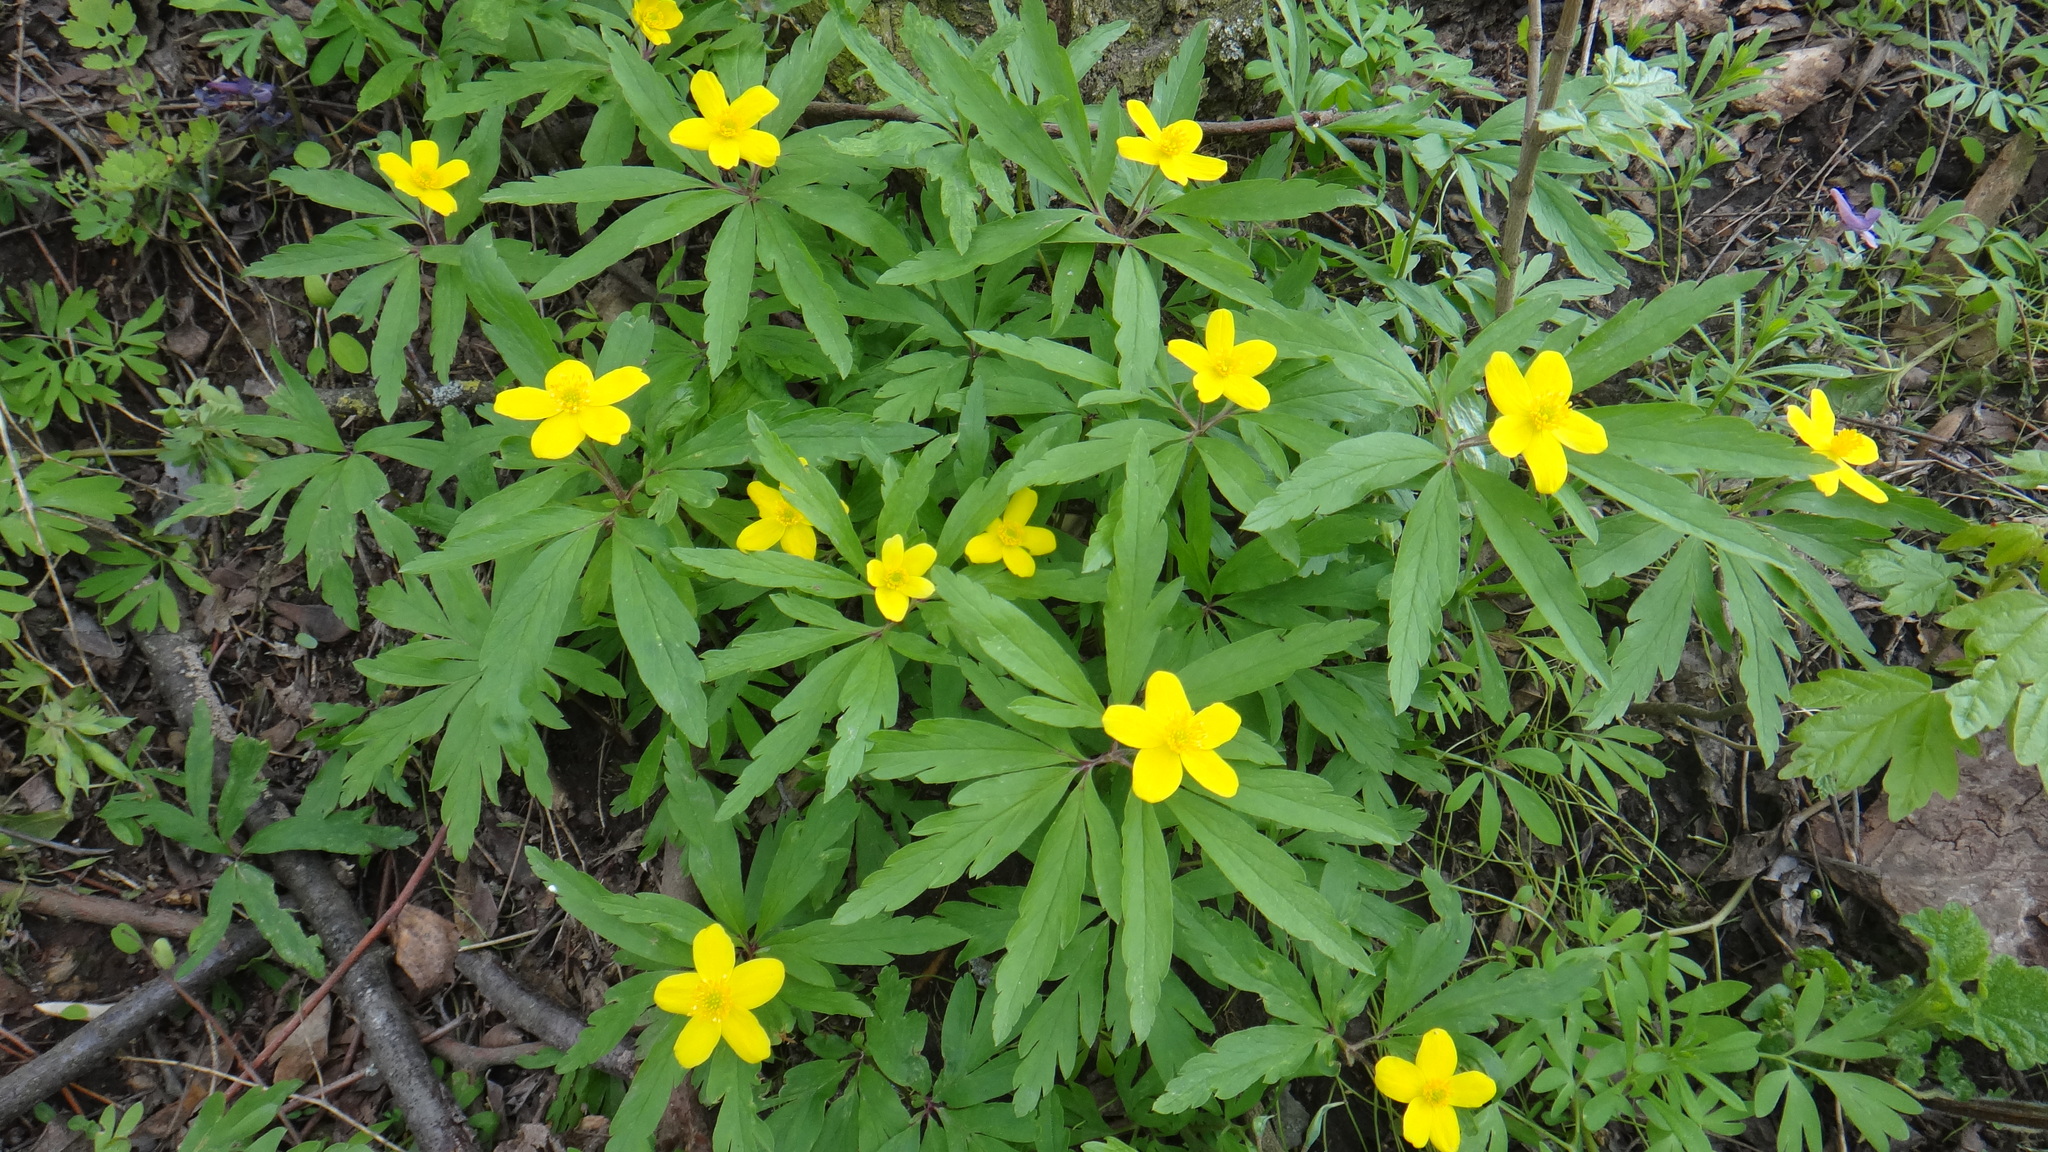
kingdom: Plantae
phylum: Tracheophyta
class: Magnoliopsida
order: Ranunculales
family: Ranunculaceae
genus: Anemone
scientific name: Anemone ranunculoides
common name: Yellow anemone
